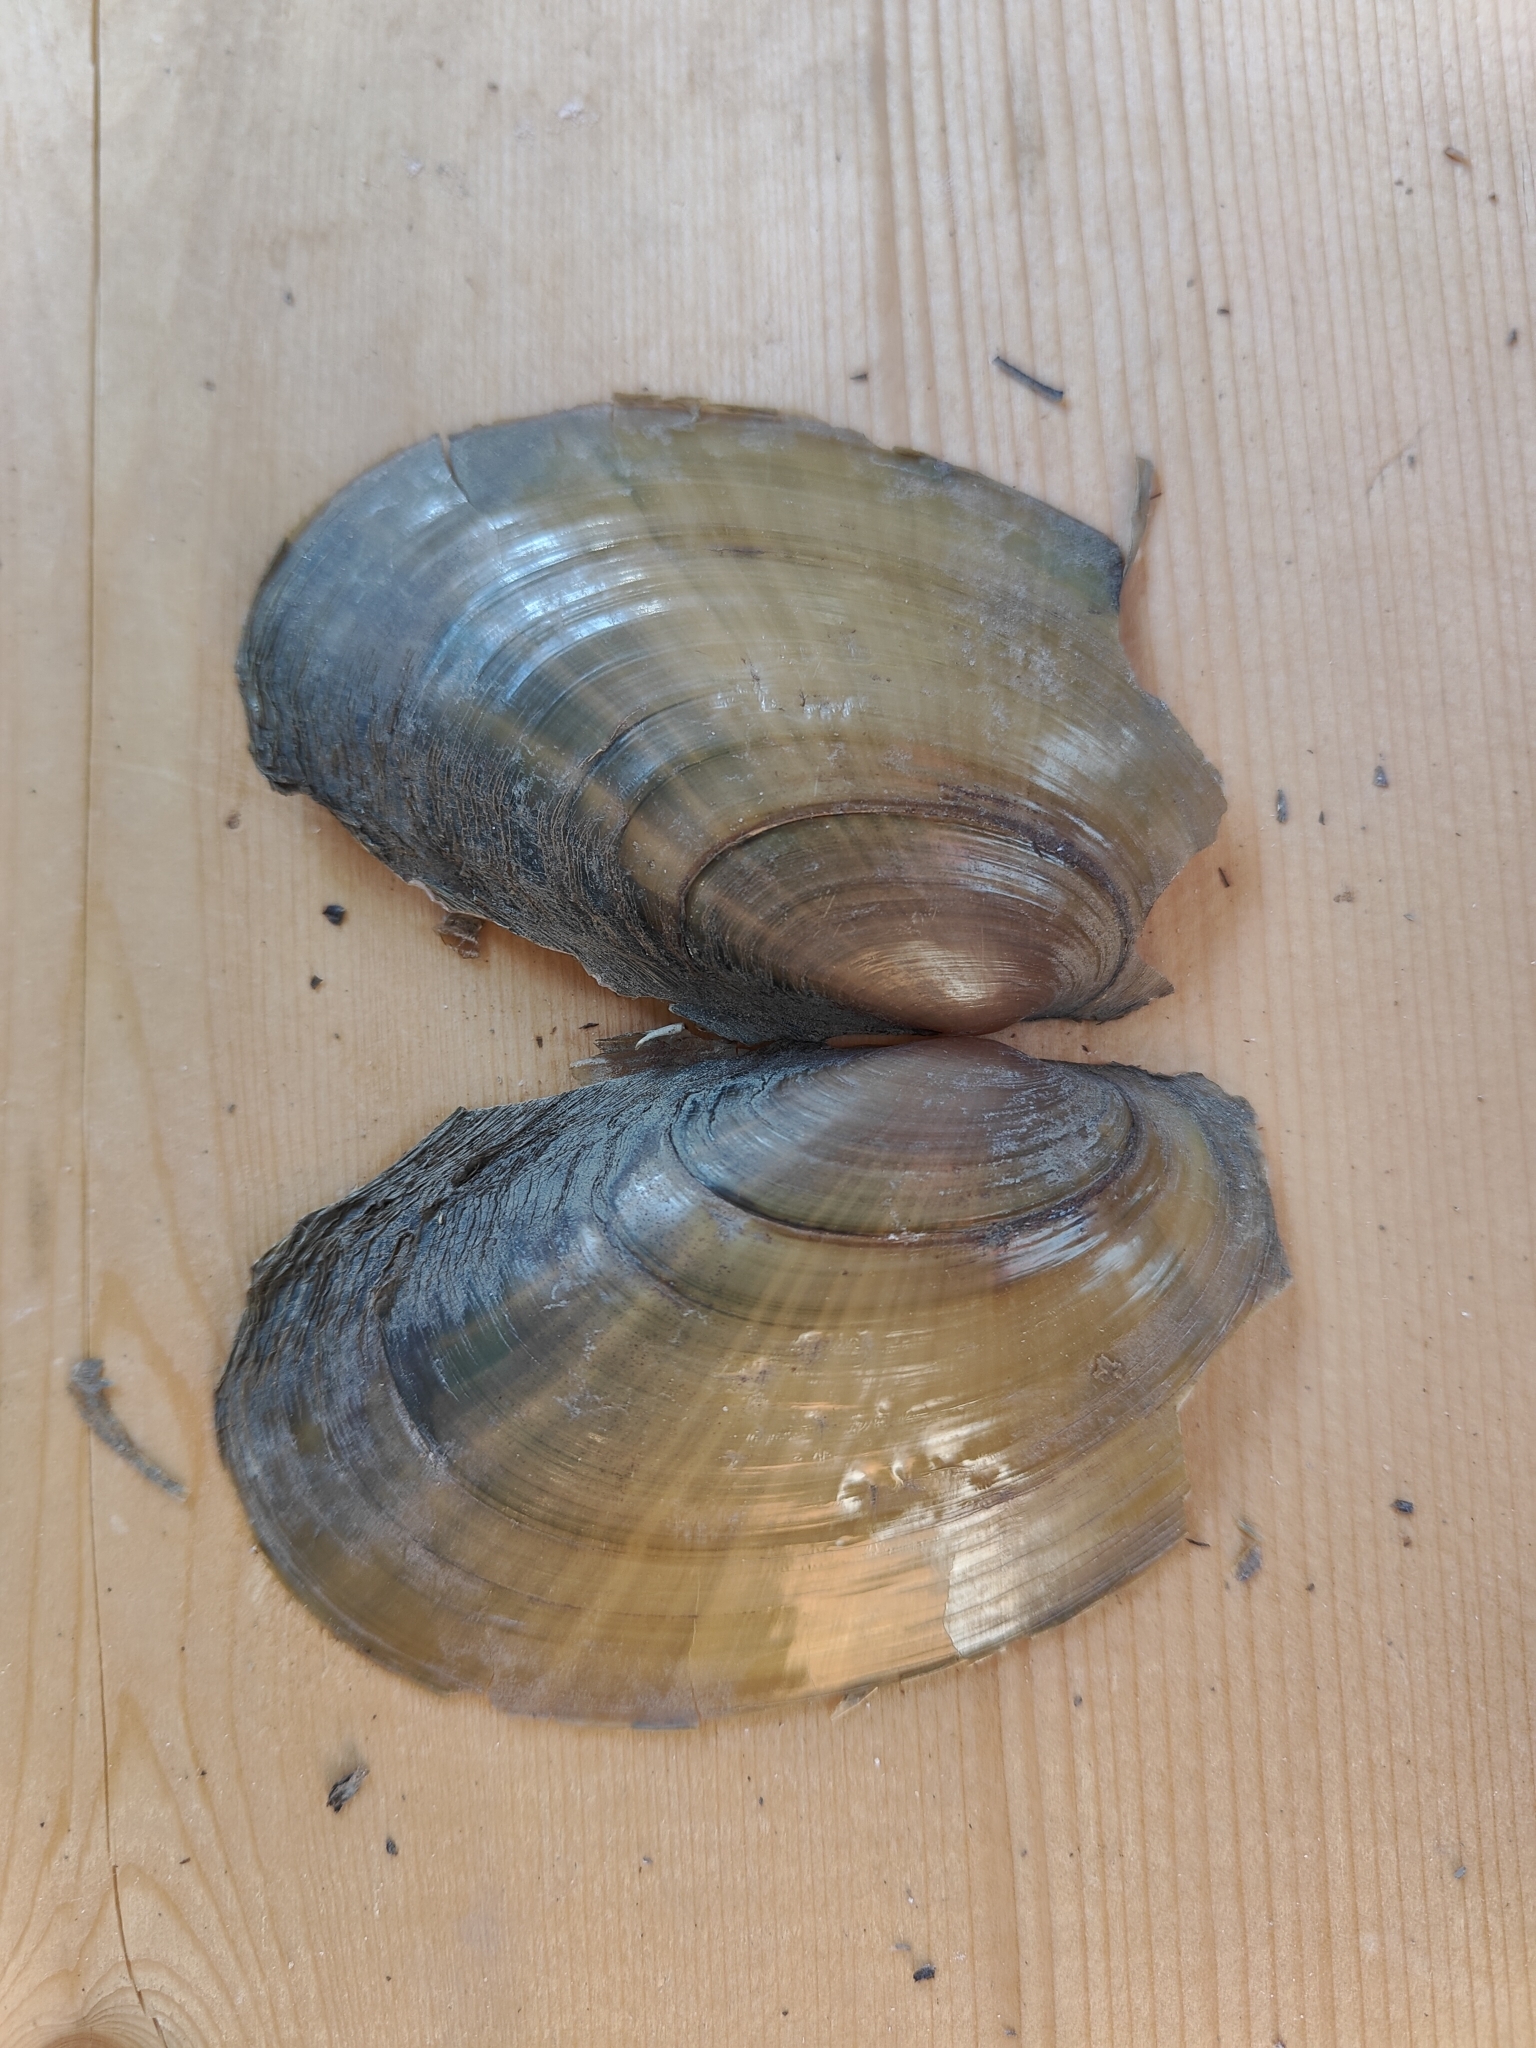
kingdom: Animalia
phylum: Mollusca
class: Bivalvia
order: Unionida
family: Unionidae
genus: Potamilus
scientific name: Potamilus fragilis
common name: Fragile papershell
